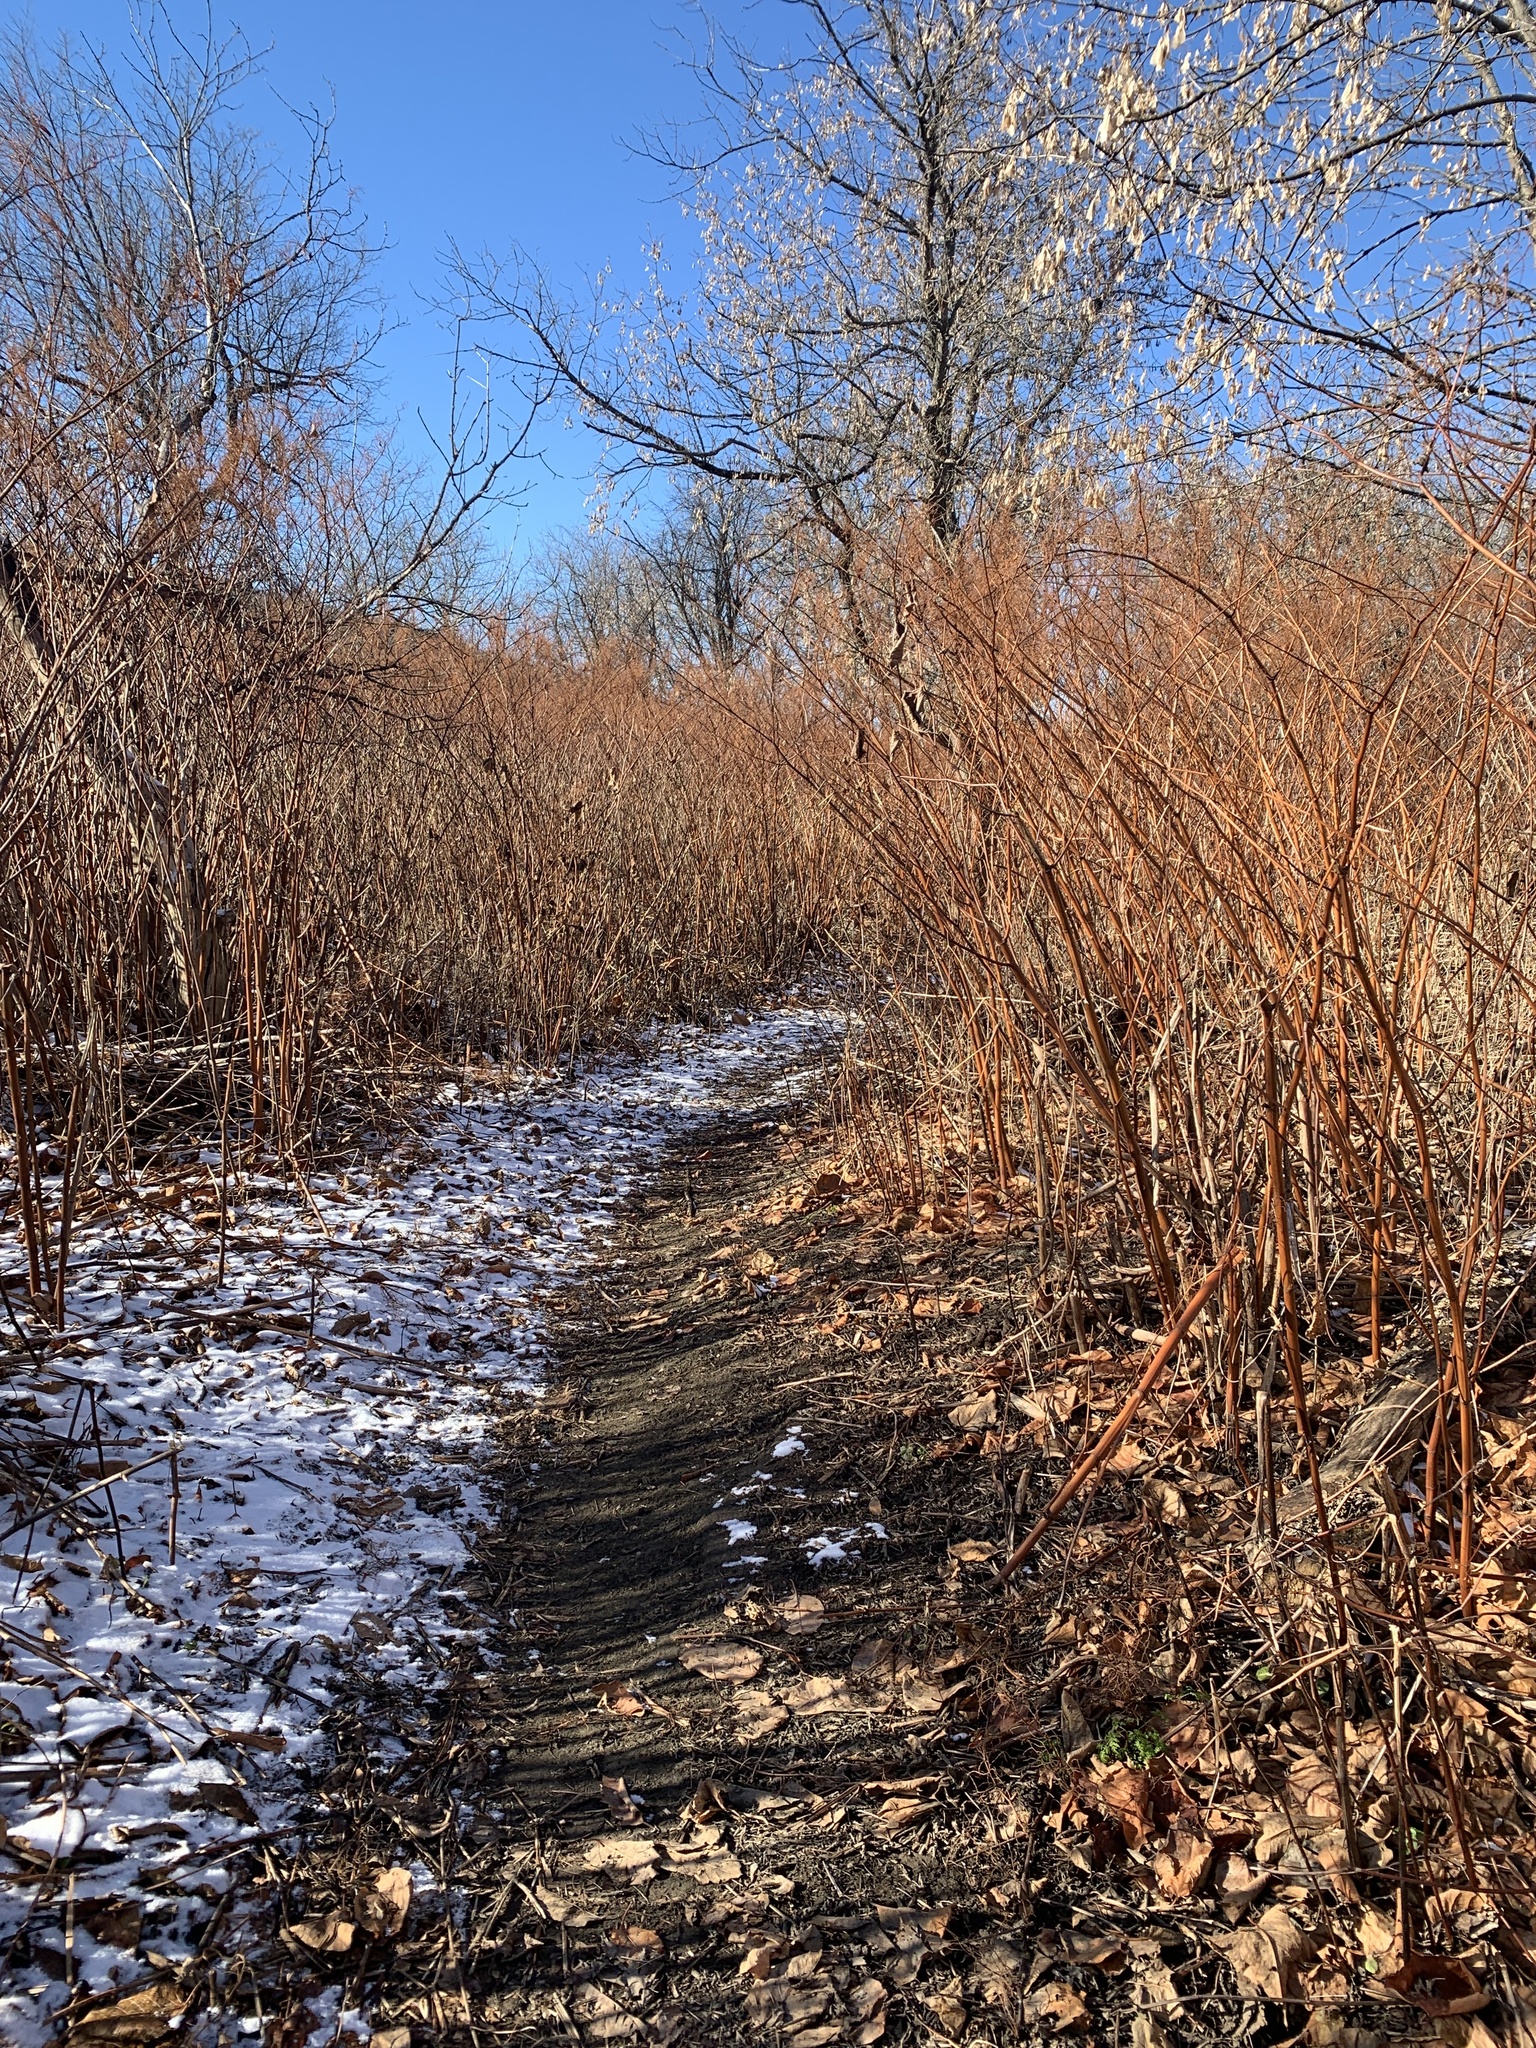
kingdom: Plantae
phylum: Tracheophyta
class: Magnoliopsida
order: Caryophyllales
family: Polygonaceae
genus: Reynoutria
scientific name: Reynoutria japonica
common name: Japanese knotweed
